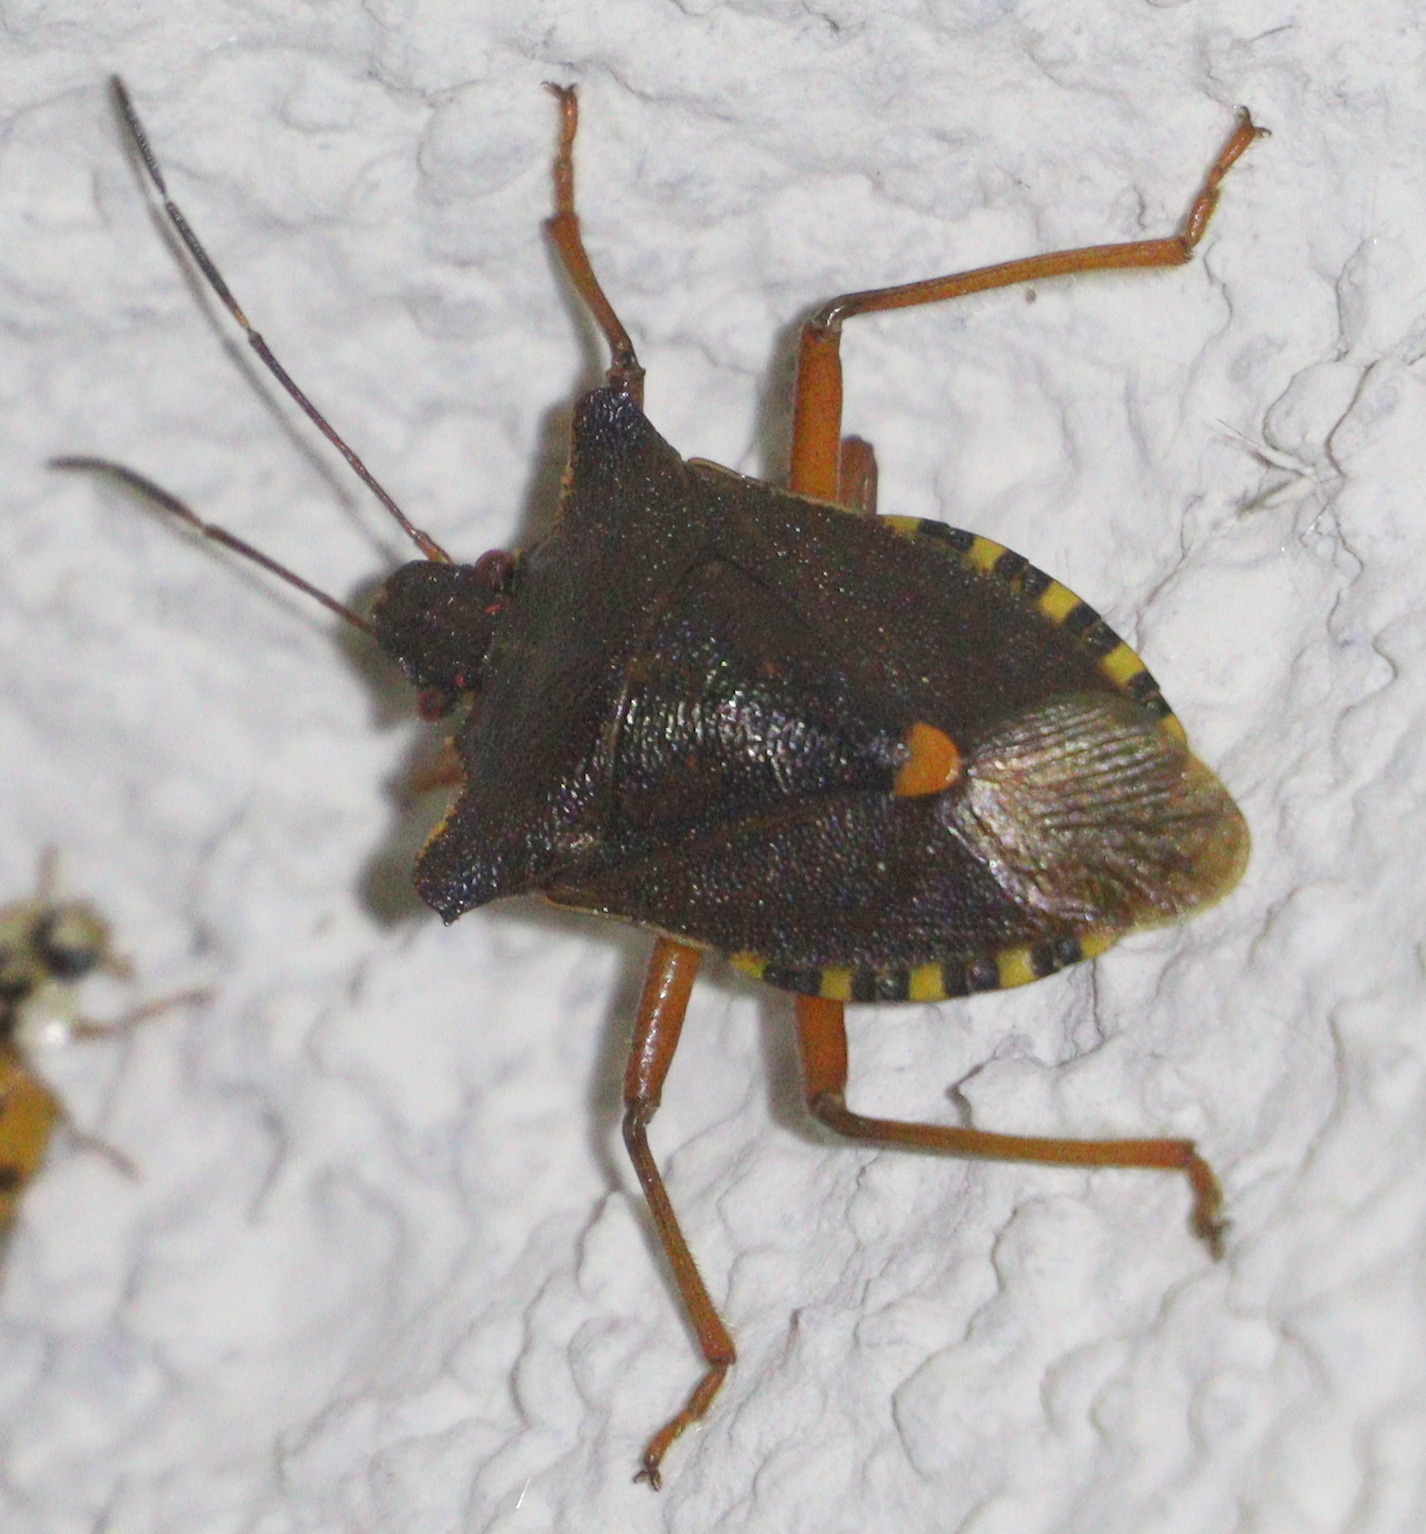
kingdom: Animalia
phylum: Arthropoda
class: Insecta
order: Hemiptera
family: Pentatomidae
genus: Pentatoma
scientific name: Pentatoma rufipes
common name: Forest bug
